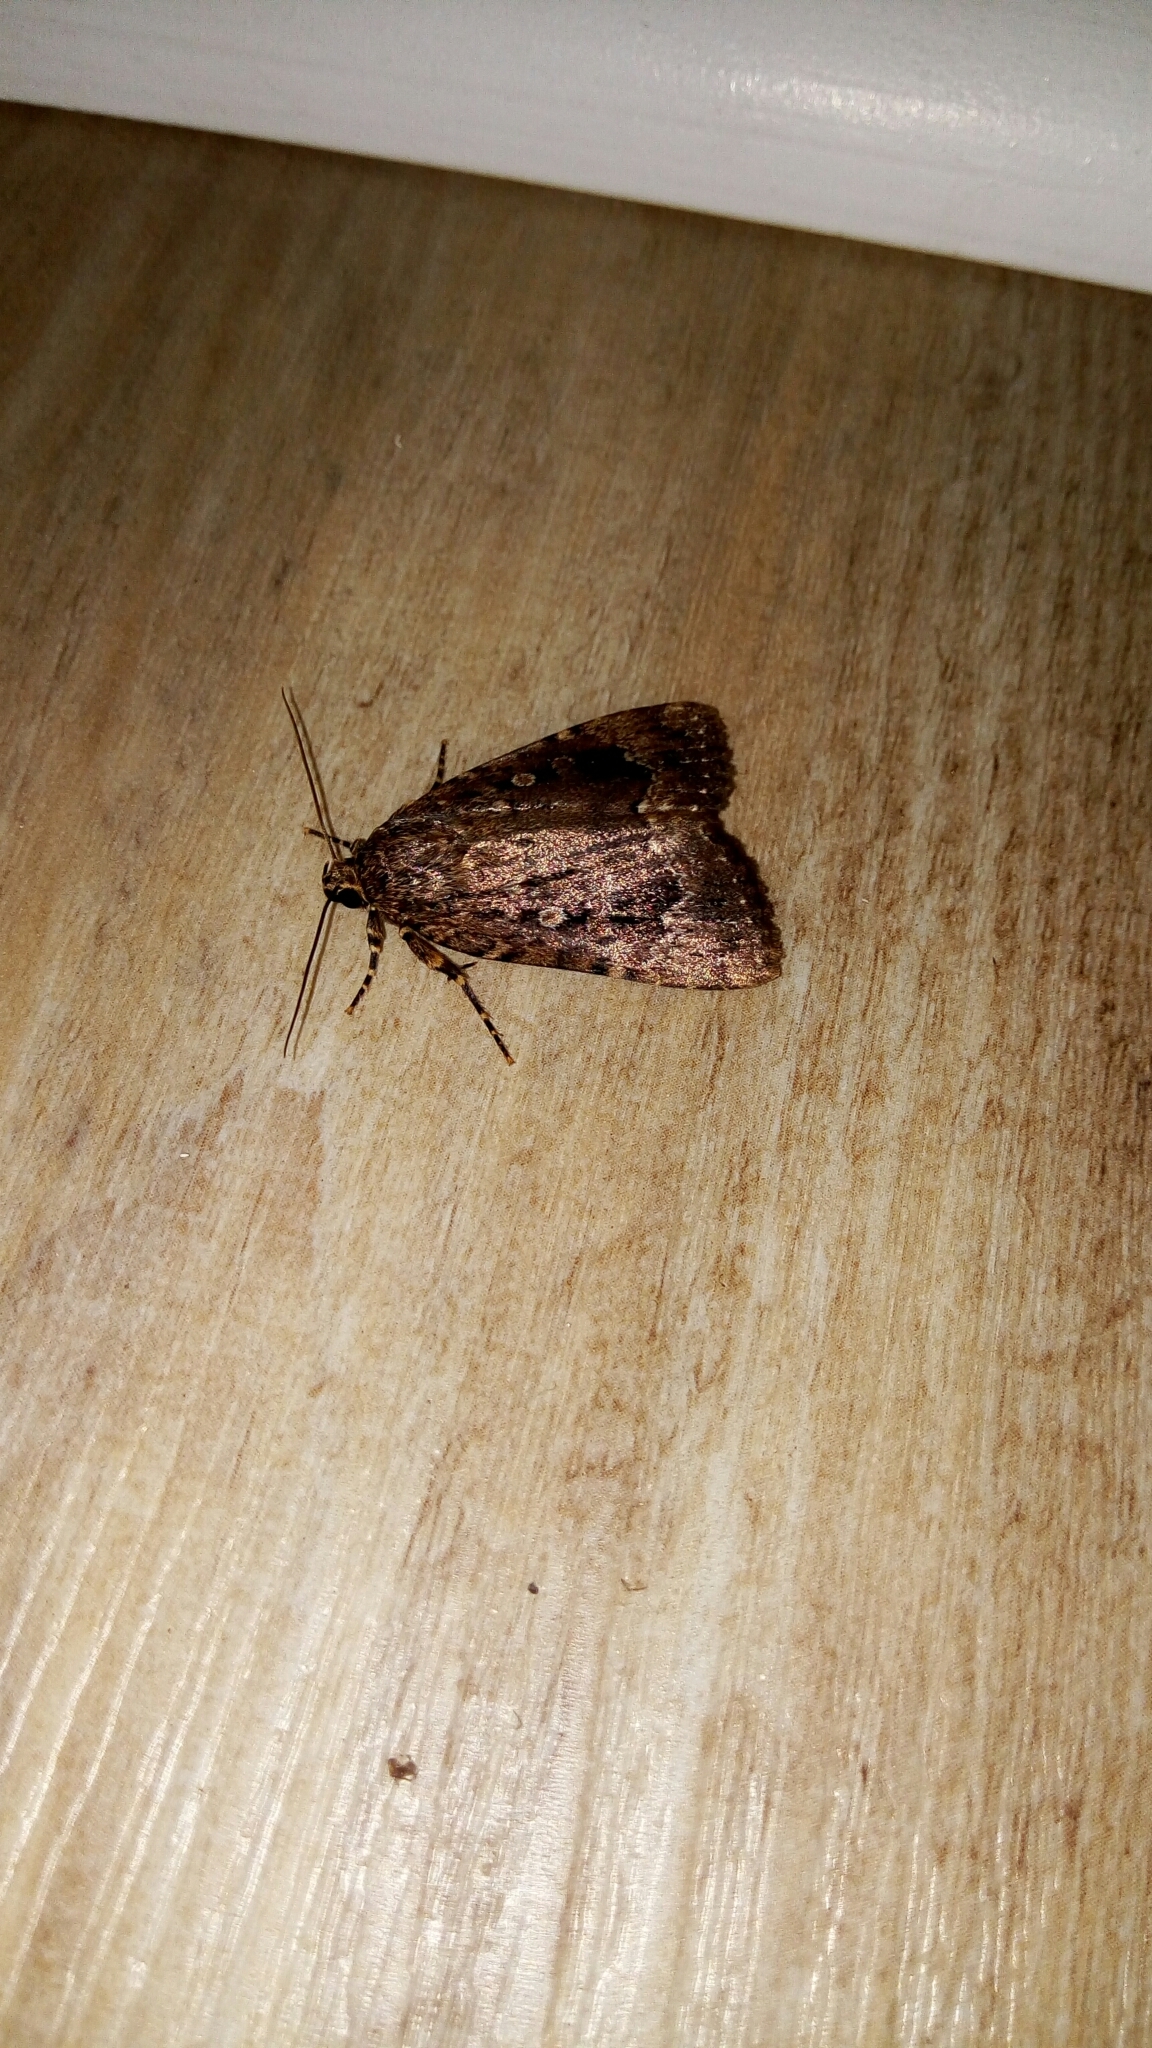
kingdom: Animalia
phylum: Arthropoda
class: Insecta
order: Lepidoptera
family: Noctuidae
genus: Amphipyra
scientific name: Amphipyra pyramidoides
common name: American copper underwing
